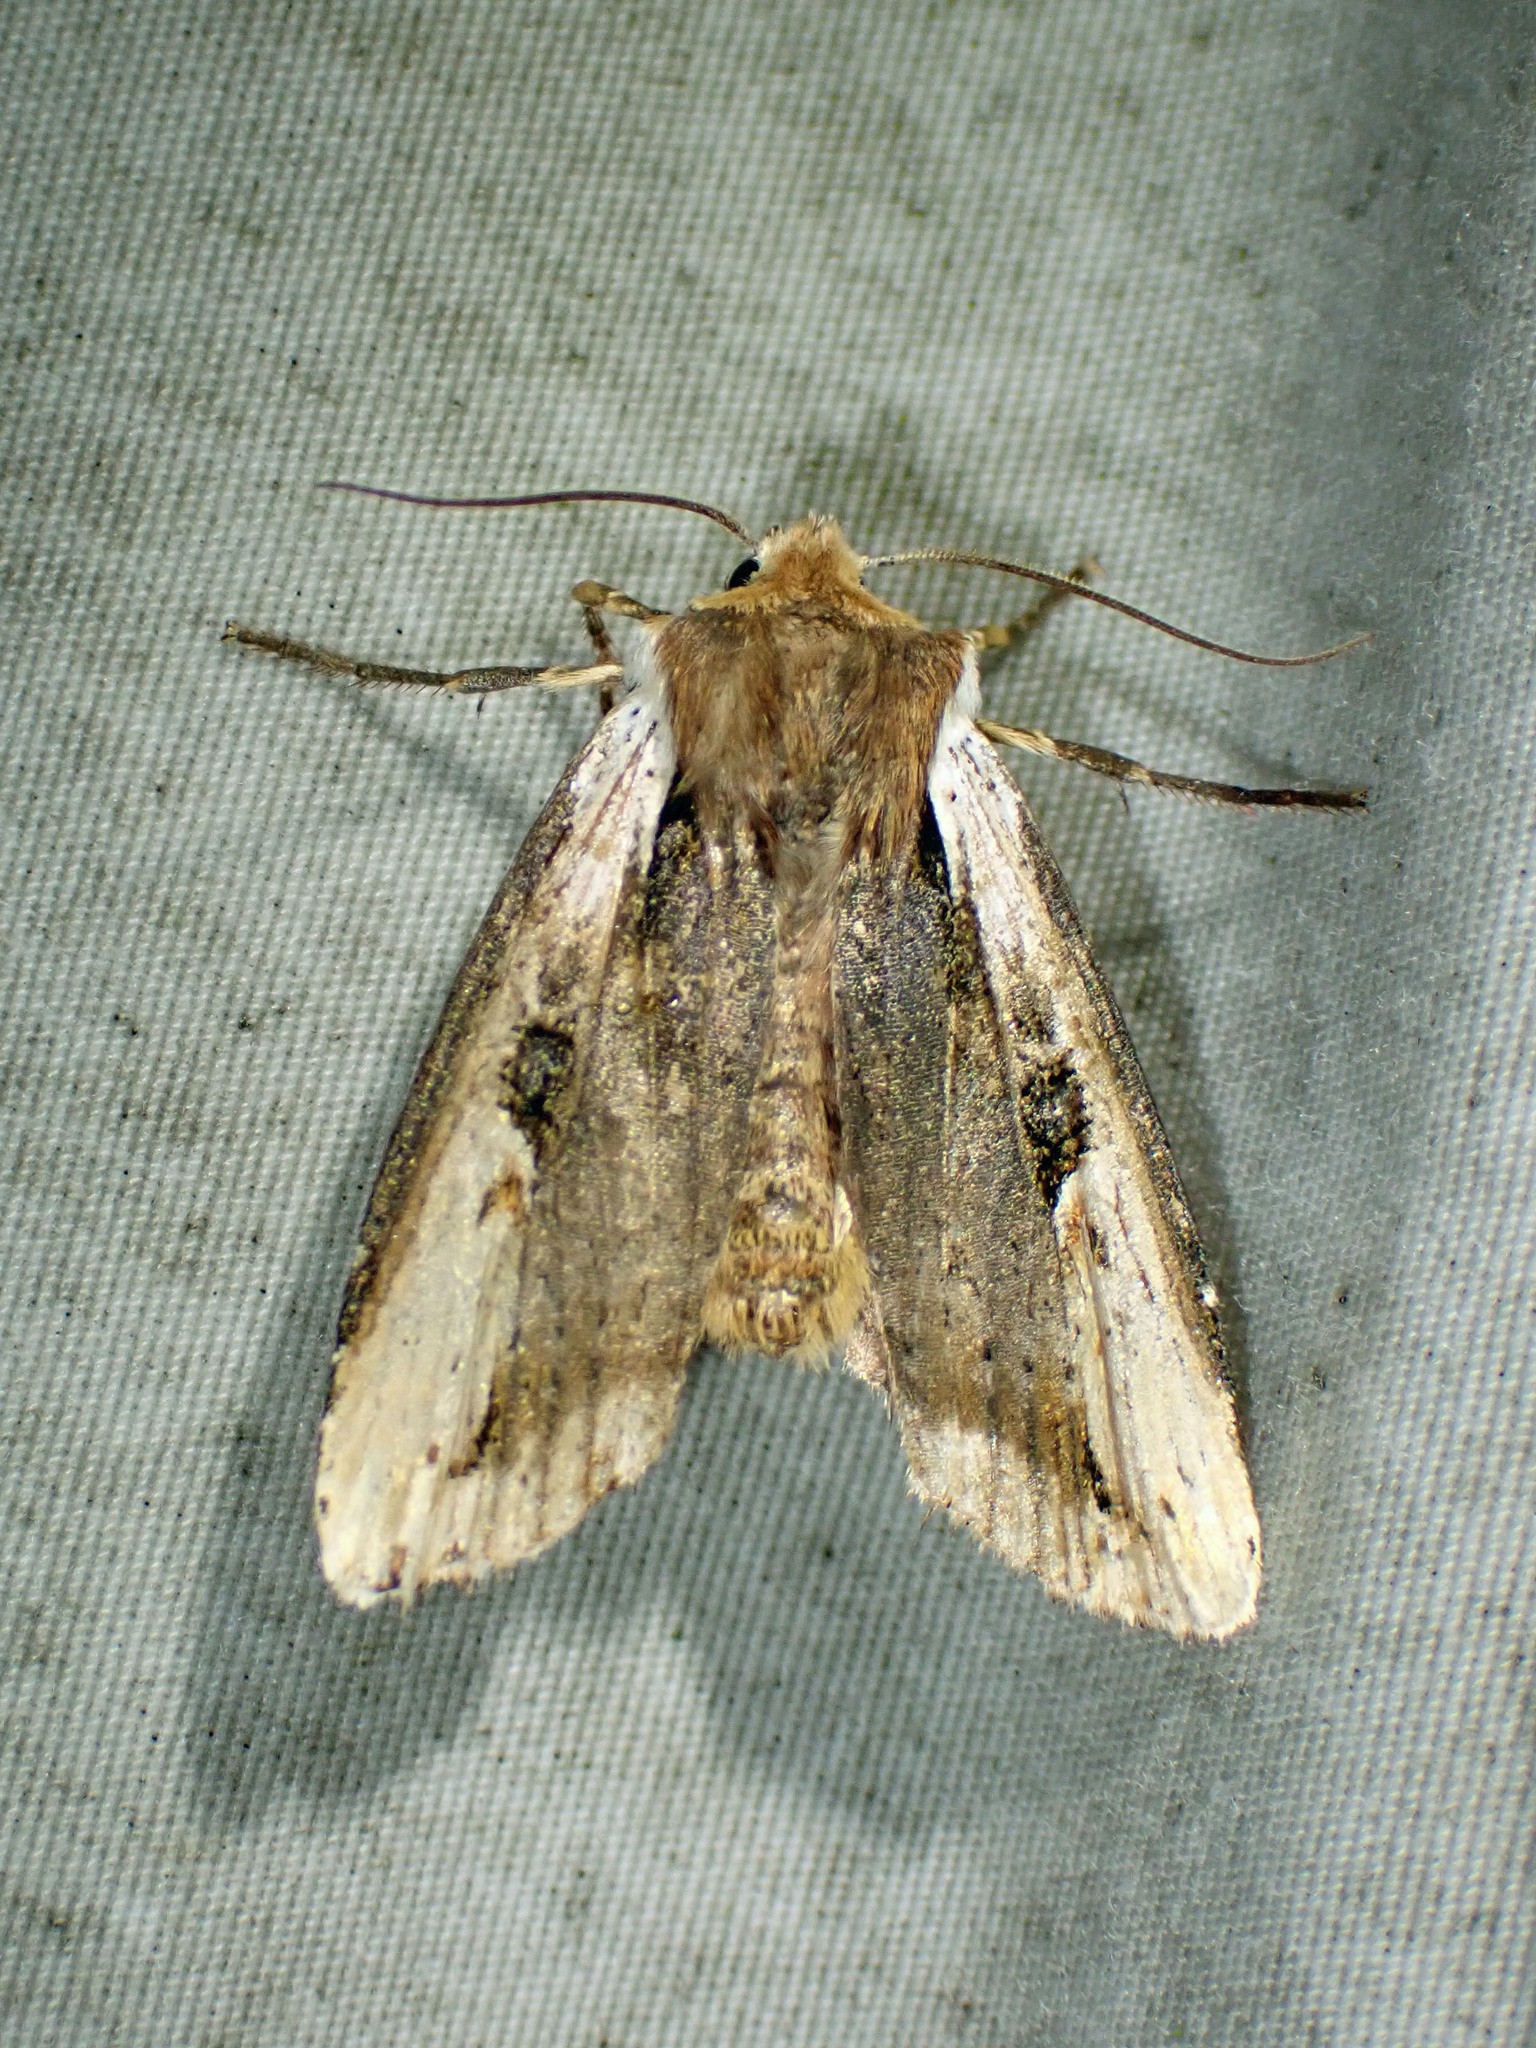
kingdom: Animalia
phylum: Arthropoda
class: Insecta
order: Lepidoptera
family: Noctuidae
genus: Xylena
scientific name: Xylena curvimacula
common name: Dot-and-dash swordgrass moth
